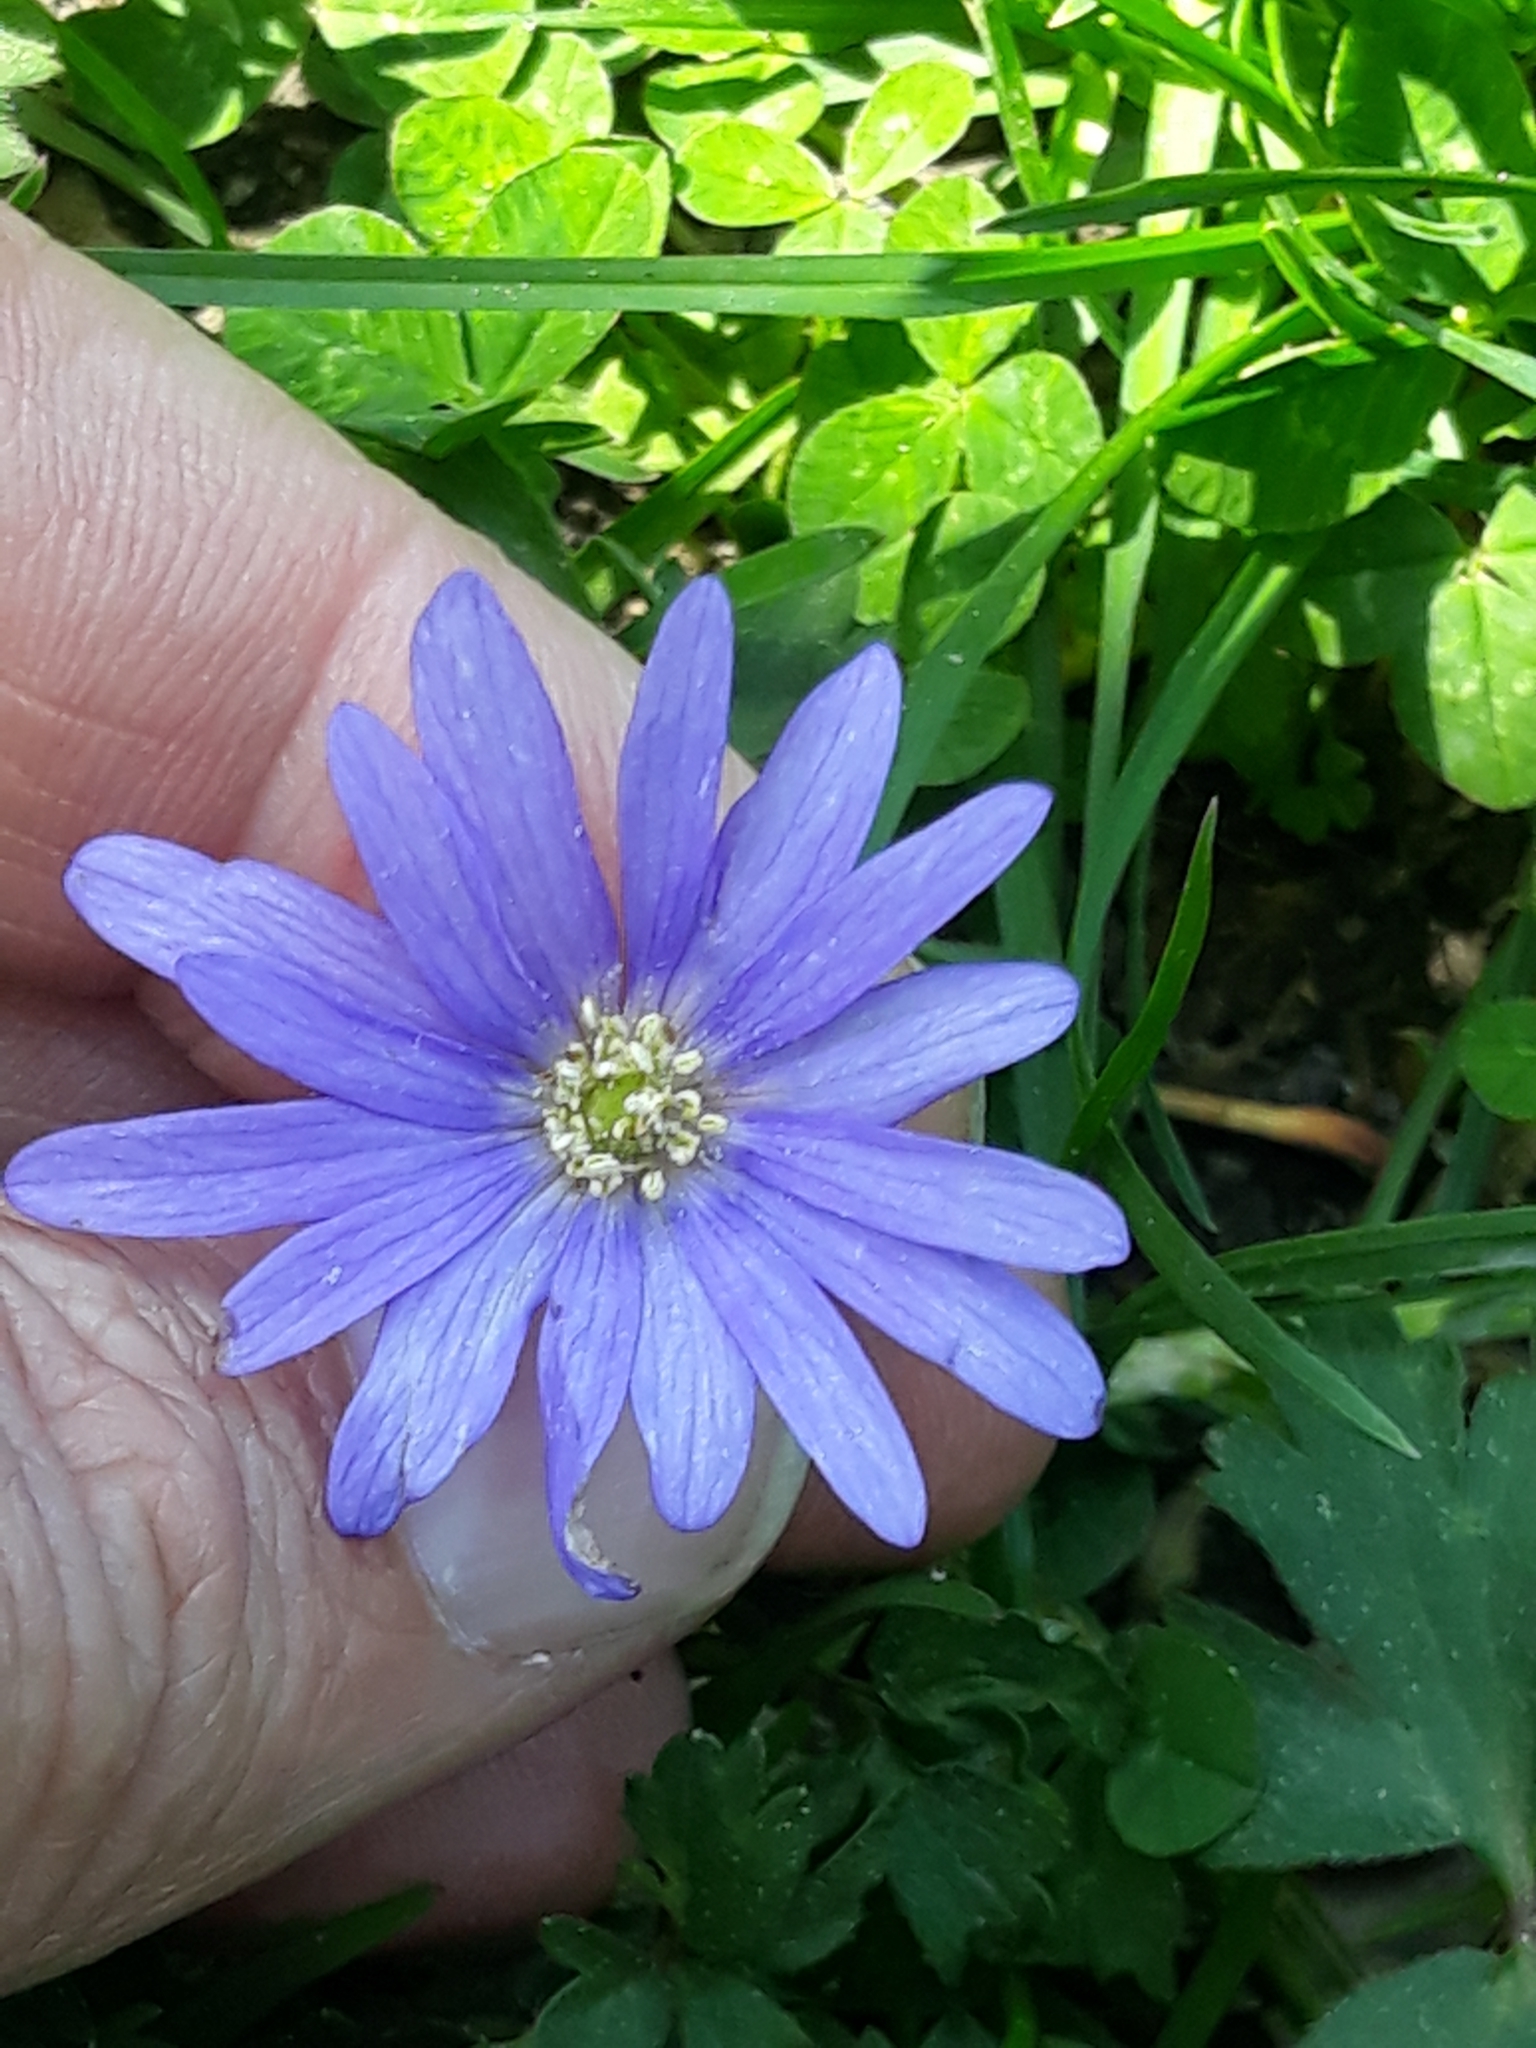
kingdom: Plantae
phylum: Tracheophyta
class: Magnoliopsida
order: Ranunculales
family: Ranunculaceae
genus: Anemone
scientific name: Anemone blanda
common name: Balkan anemone
